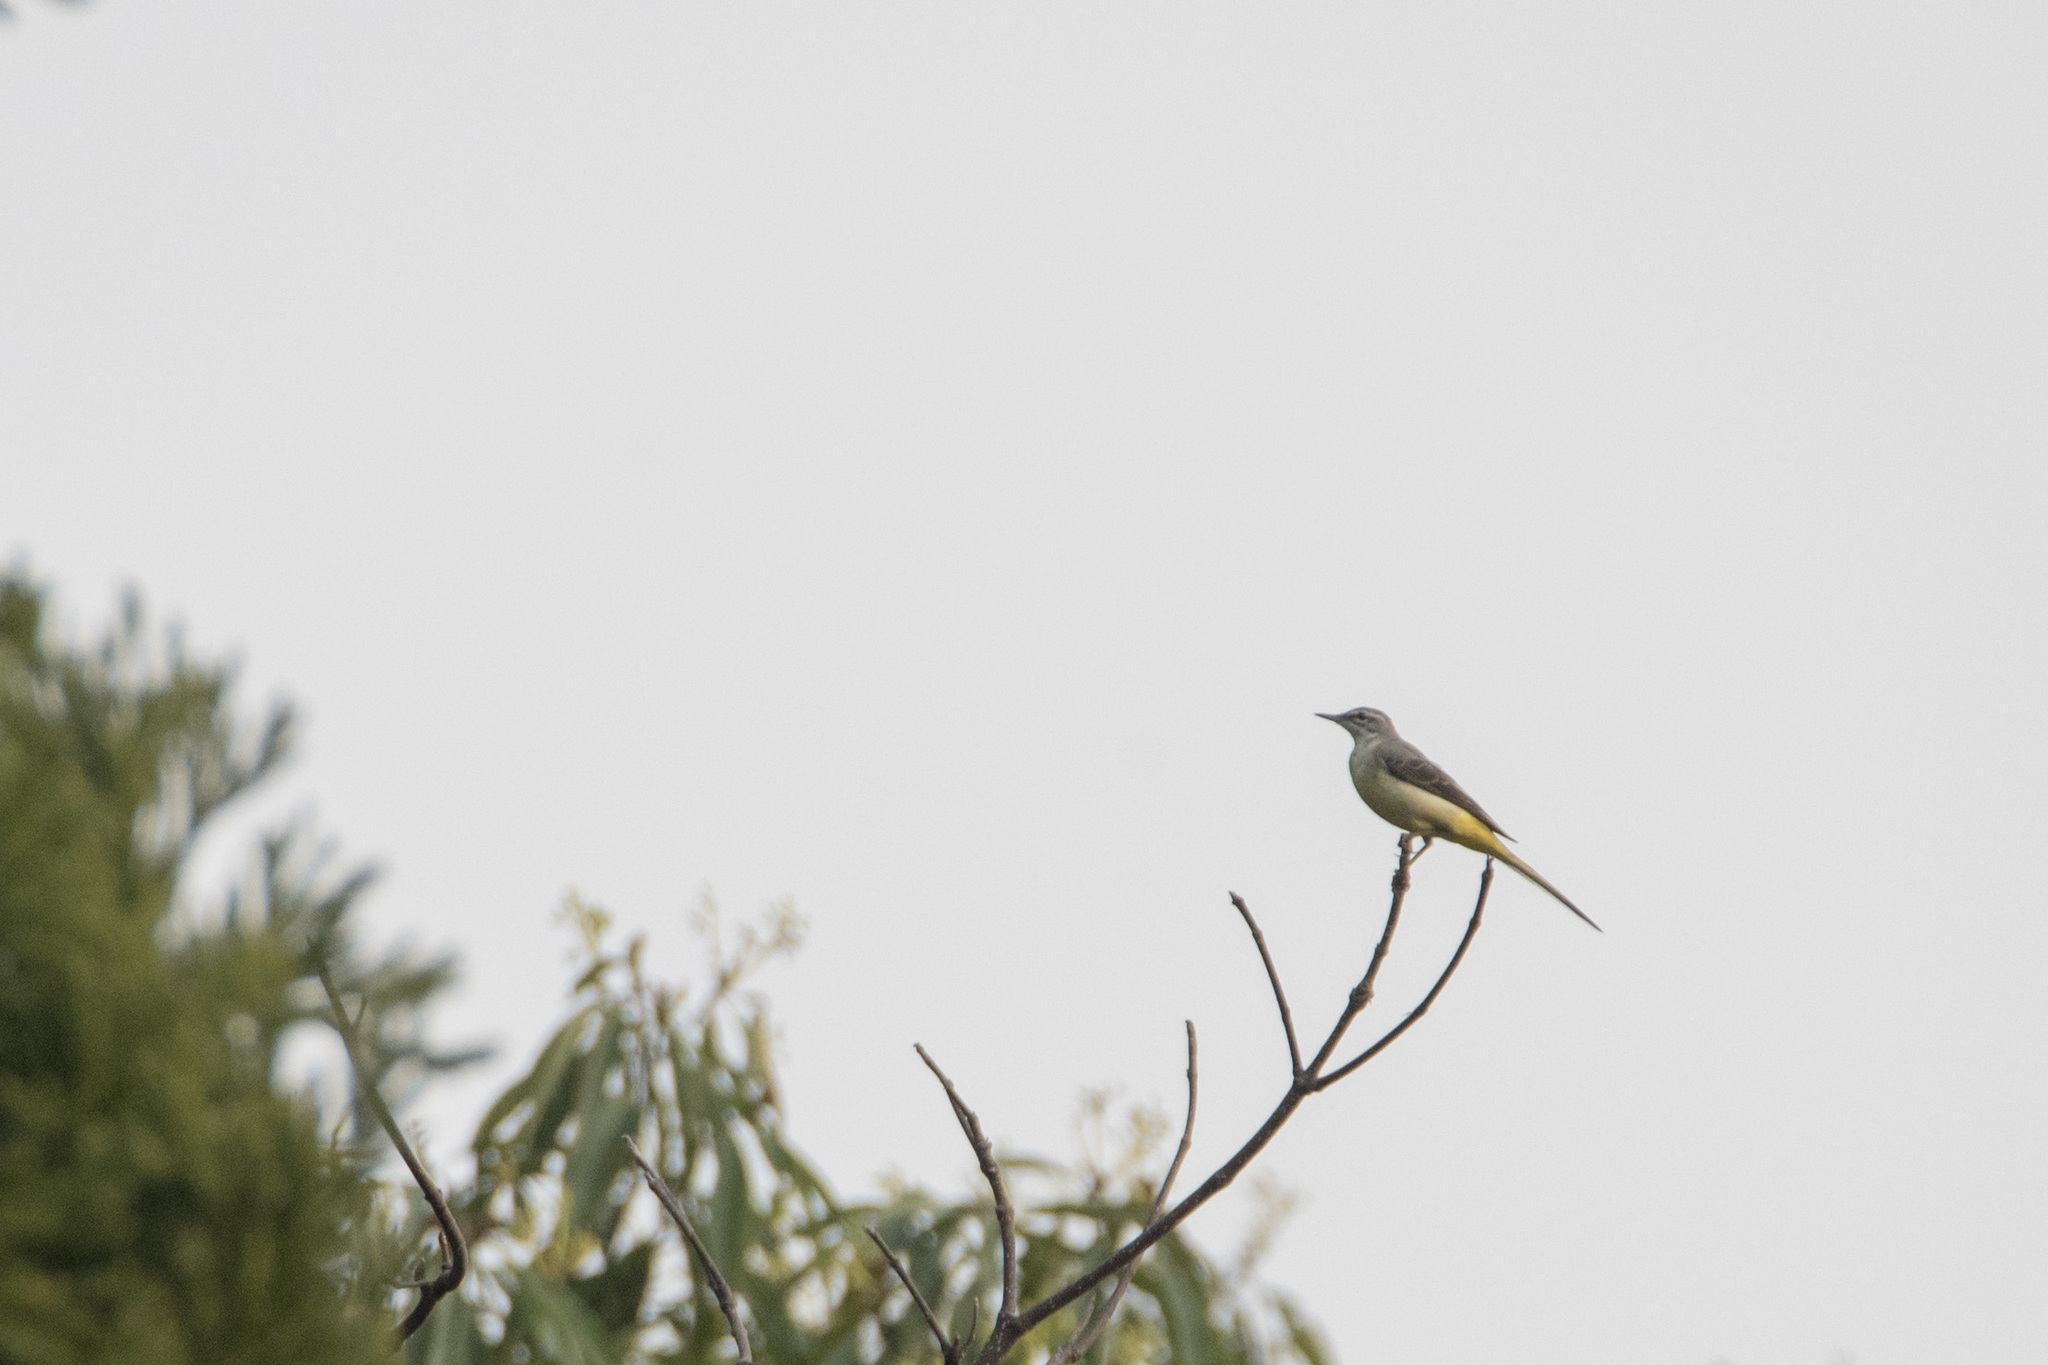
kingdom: Animalia
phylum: Chordata
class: Aves
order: Passeriformes
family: Motacillidae
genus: Motacilla
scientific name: Motacilla cinerea
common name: Grey wagtail
